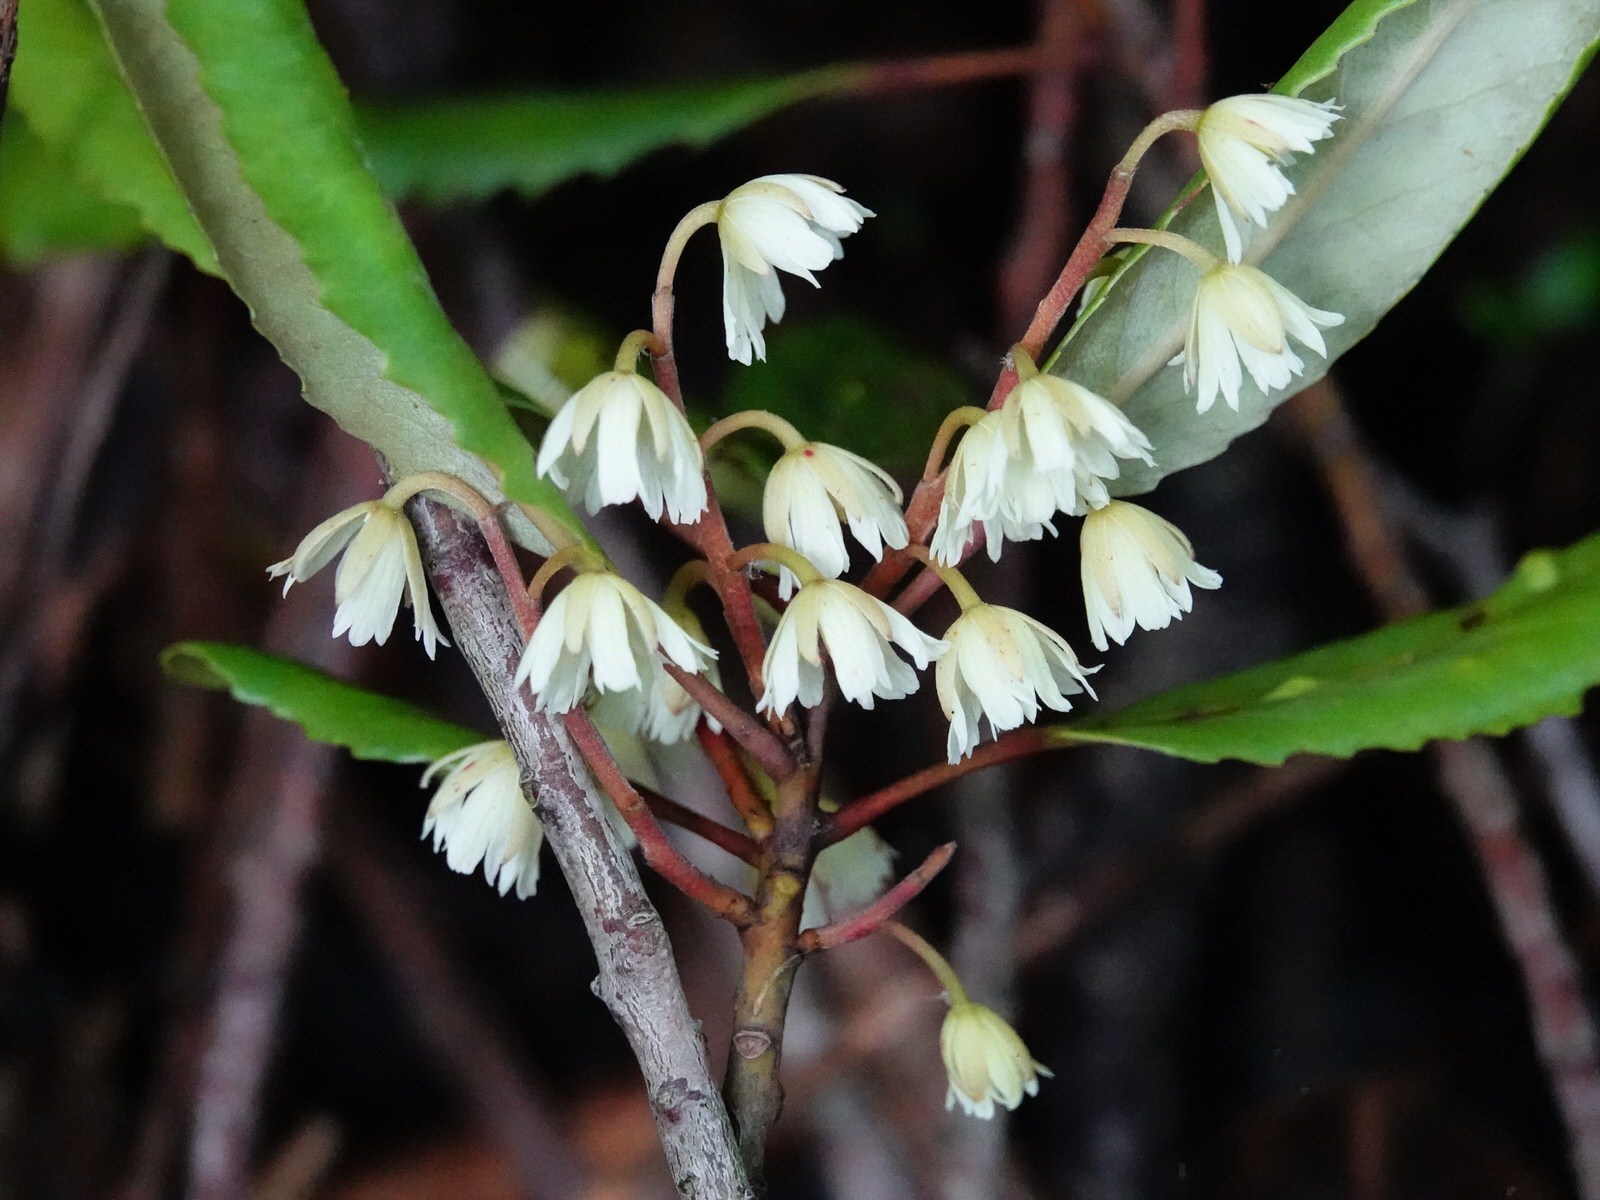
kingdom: Plantae
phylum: Tracheophyta
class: Magnoliopsida
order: Oxalidales
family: Elaeocarpaceae
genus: Elaeocarpus
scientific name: Elaeocarpus dentatus
